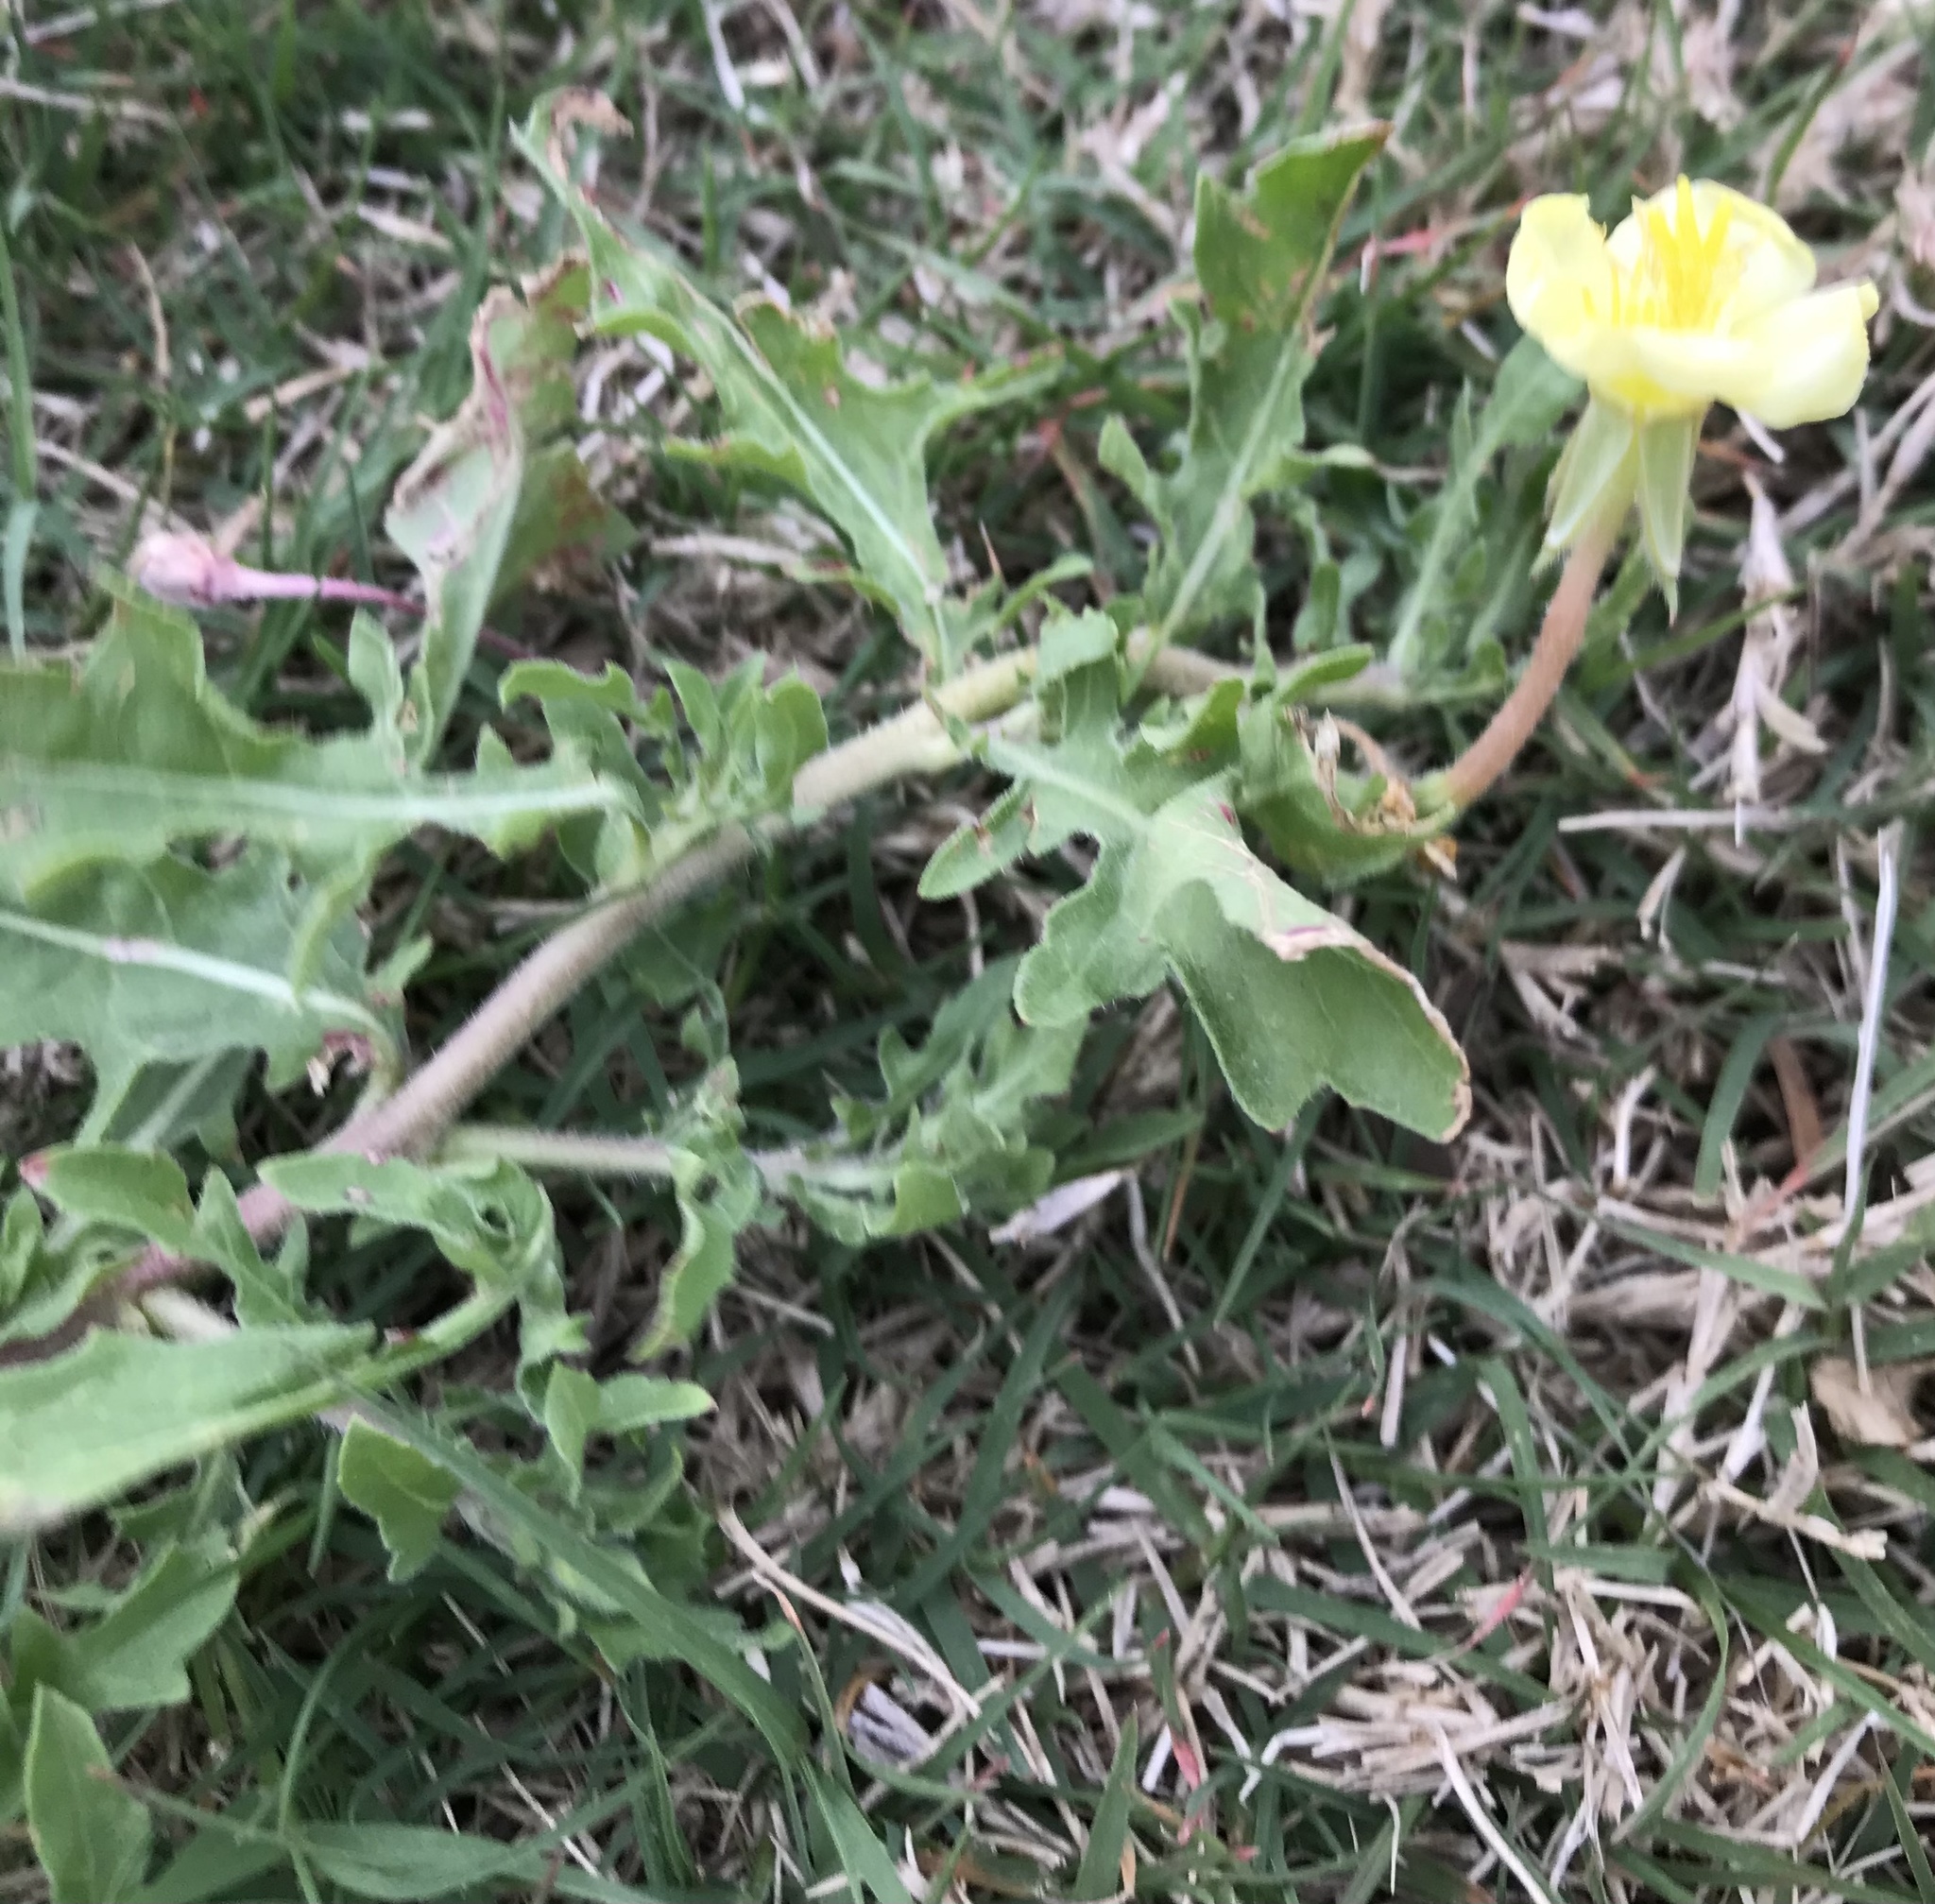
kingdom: Plantae
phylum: Tracheophyta
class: Magnoliopsida
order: Myrtales
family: Onagraceae
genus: Oenothera
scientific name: Oenothera laciniata
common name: Cut-leaved evening-primrose
